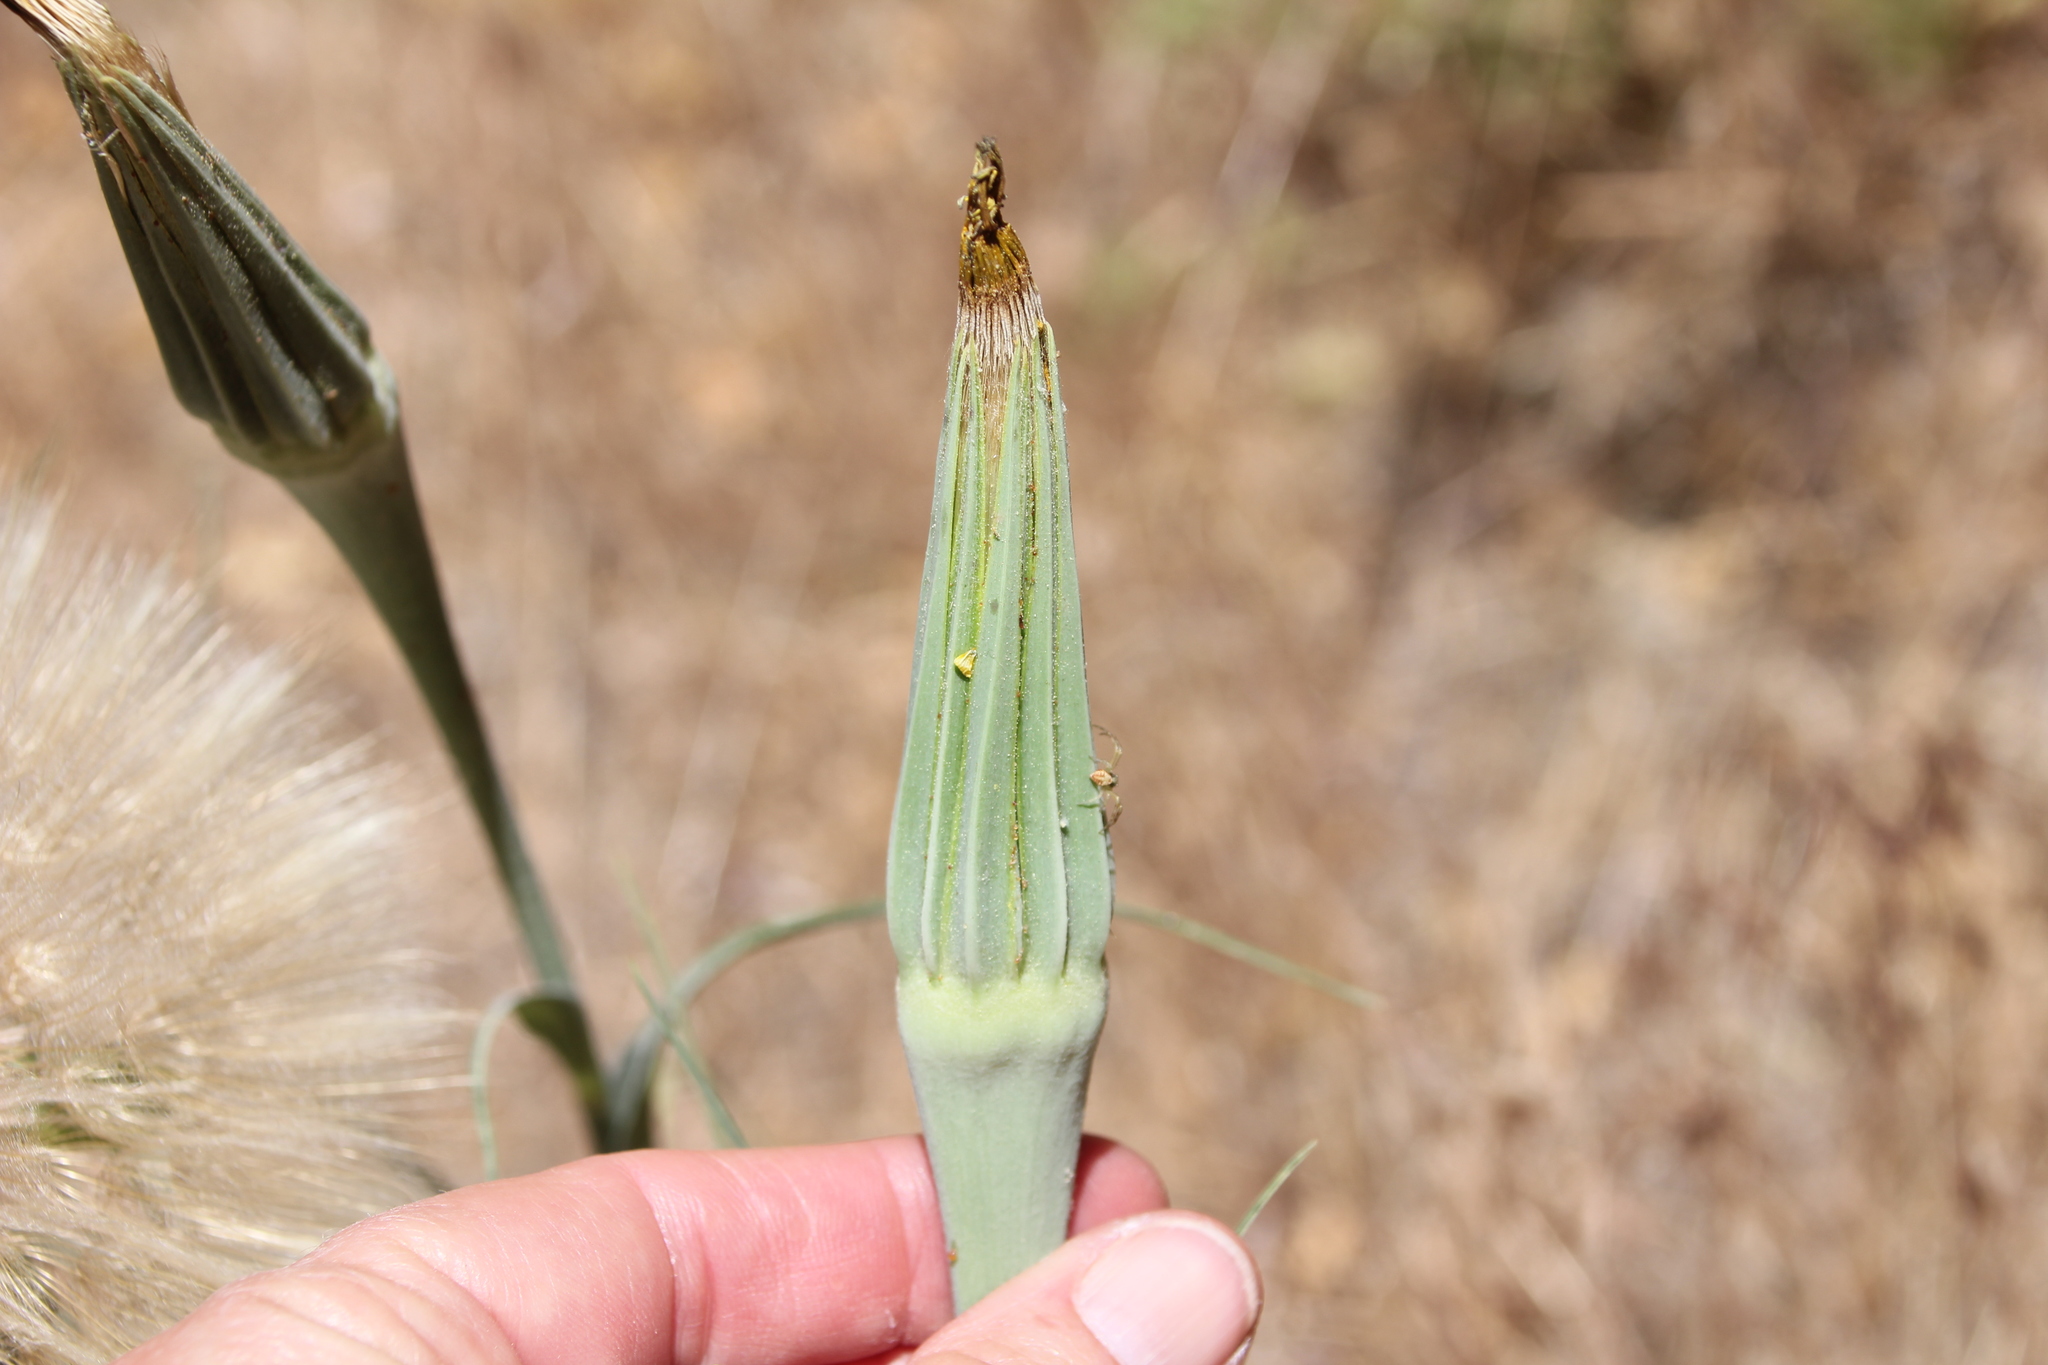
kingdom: Plantae
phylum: Tracheophyta
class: Magnoliopsida
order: Asterales
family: Asteraceae
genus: Tragopogon
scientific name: Tragopogon dubius
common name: Yellow salsify
